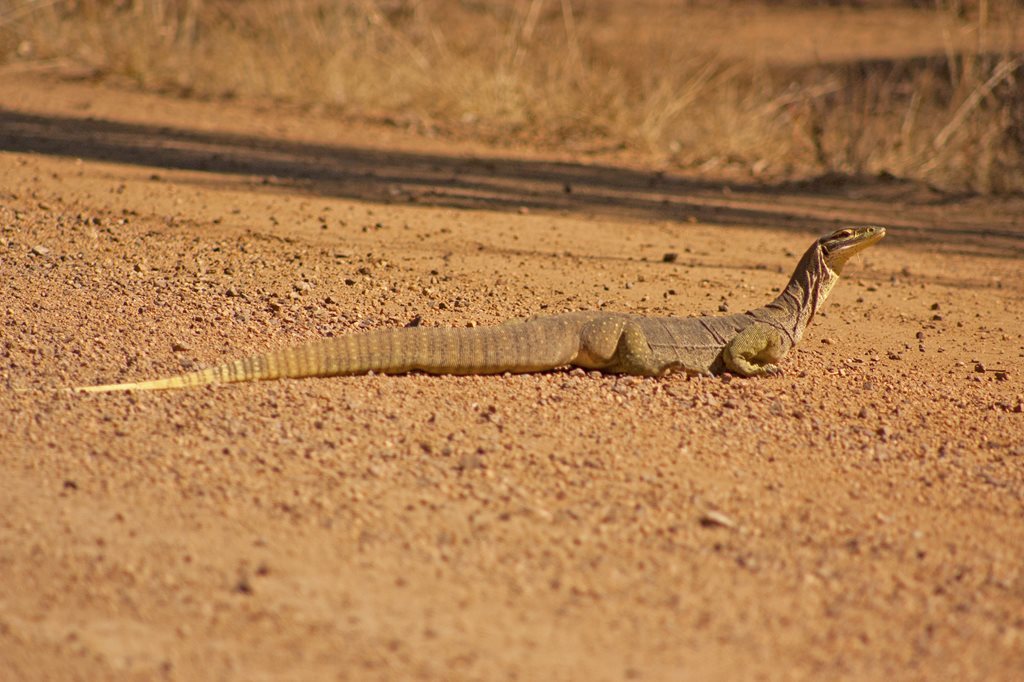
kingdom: Animalia
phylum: Chordata
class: Squamata
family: Varanidae
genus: Varanus
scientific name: Varanus panoptes
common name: Yellow-spotted monitor
